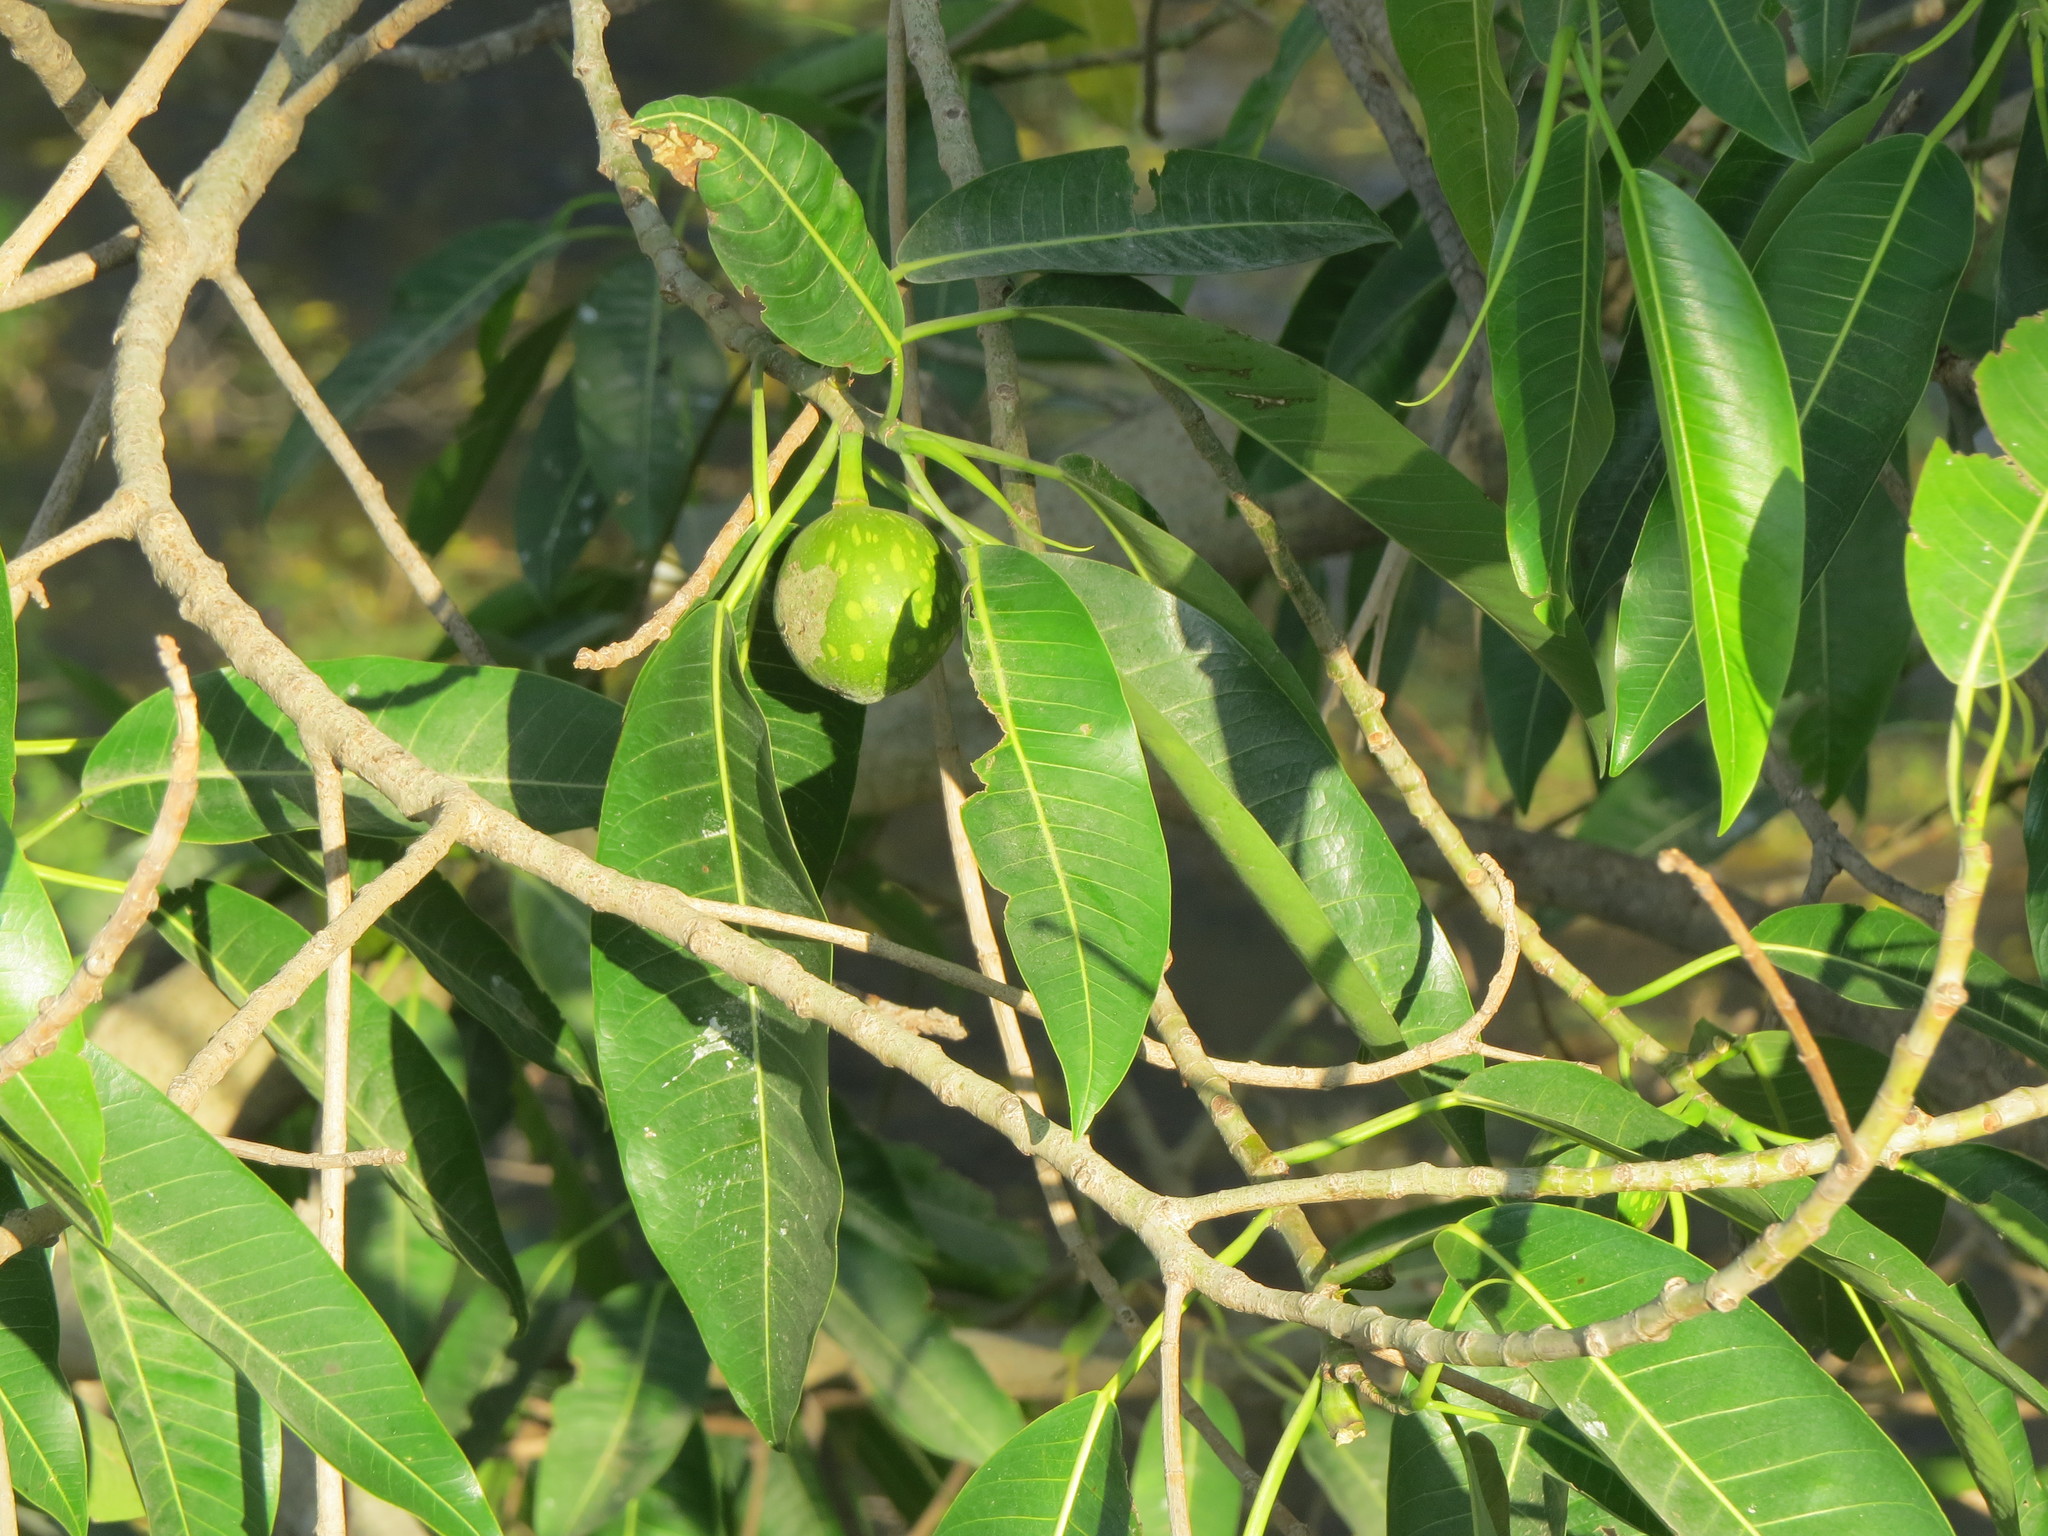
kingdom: Plantae
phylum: Tracheophyta
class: Magnoliopsida
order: Rosales
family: Moraceae
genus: Ficus
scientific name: Ficus insipida
